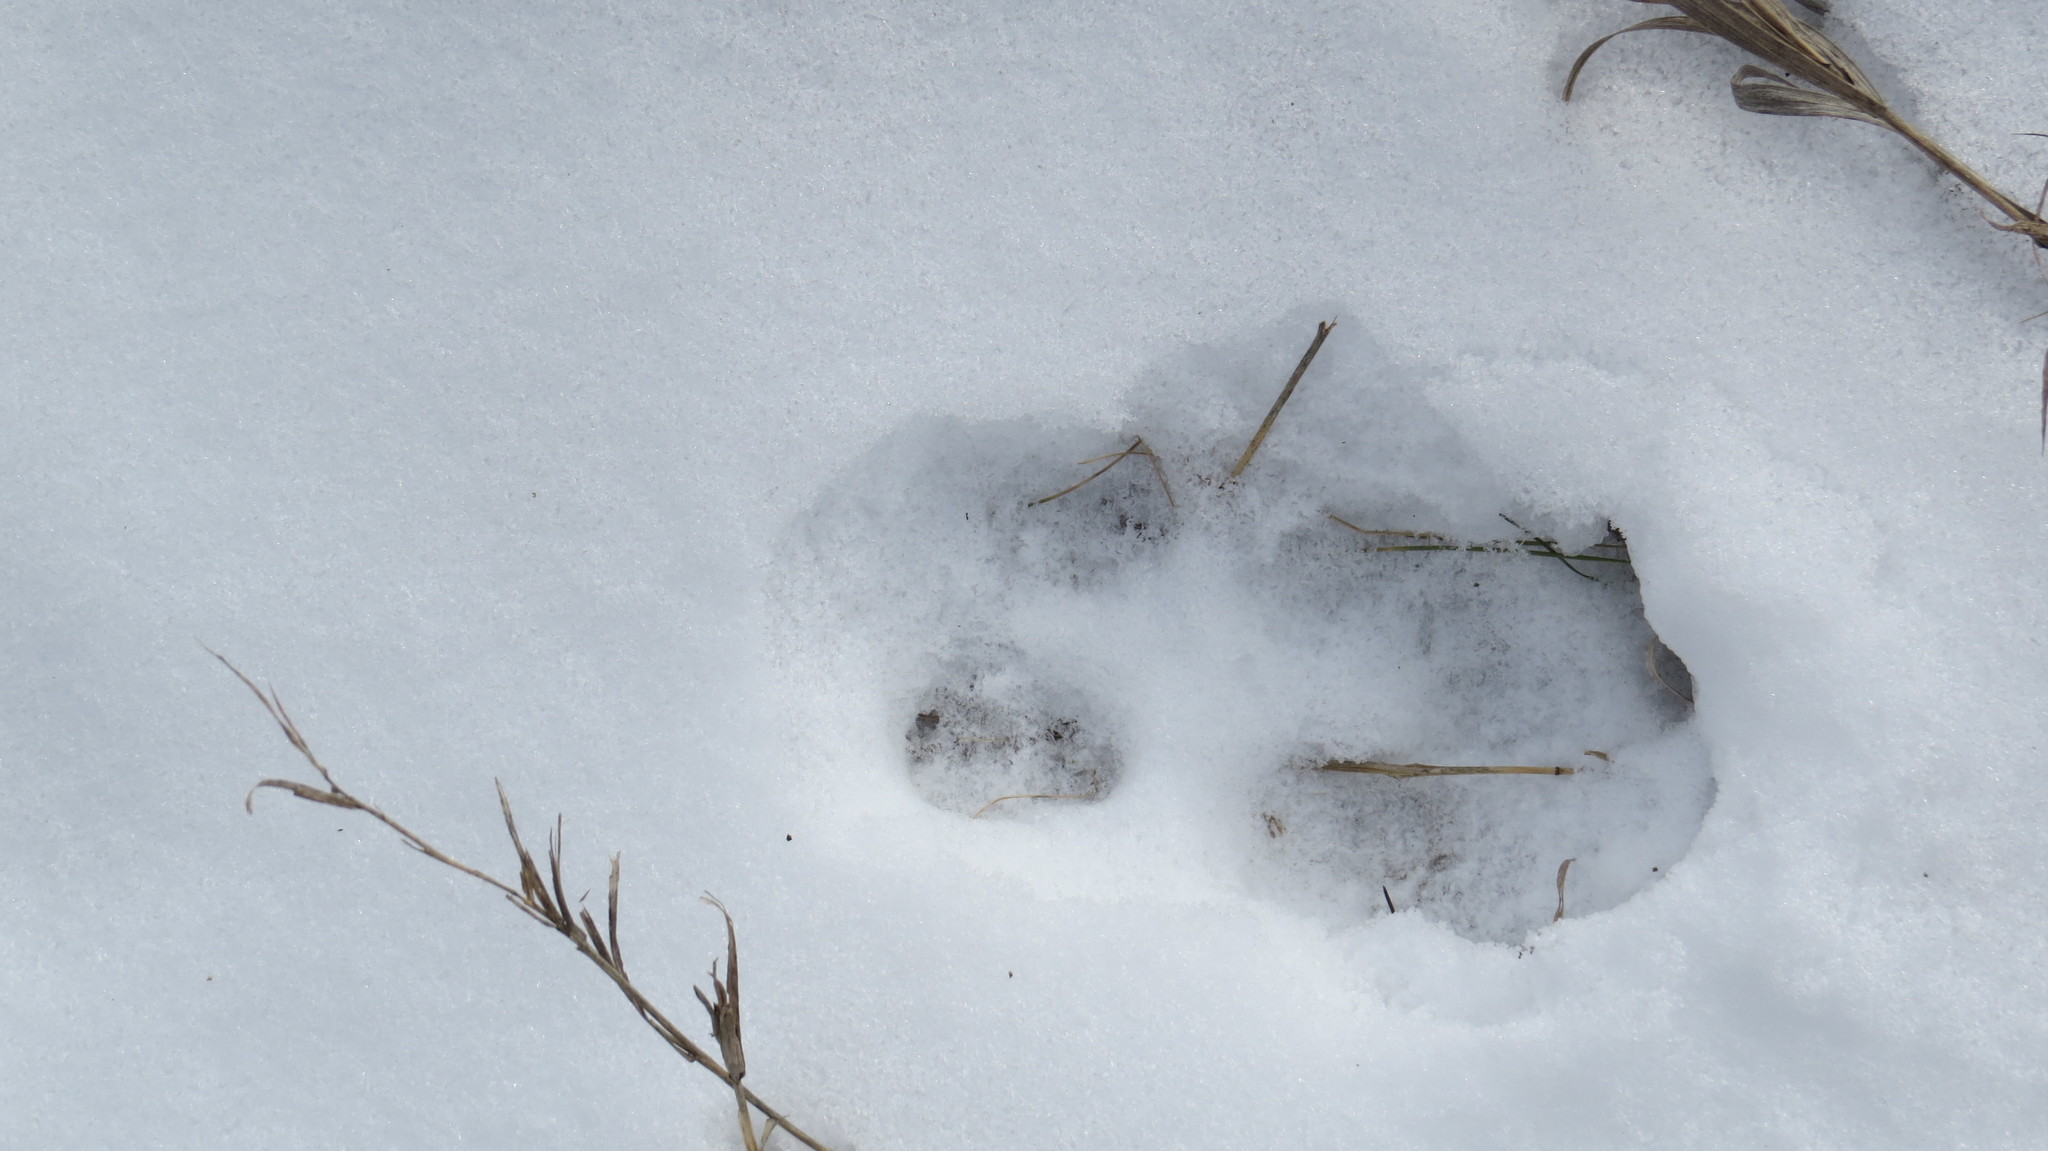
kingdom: Animalia
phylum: Chordata
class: Mammalia
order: Artiodactyla
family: Cervidae
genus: Odocoileus
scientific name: Odocoileus virginianus
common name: White-tailed deer
